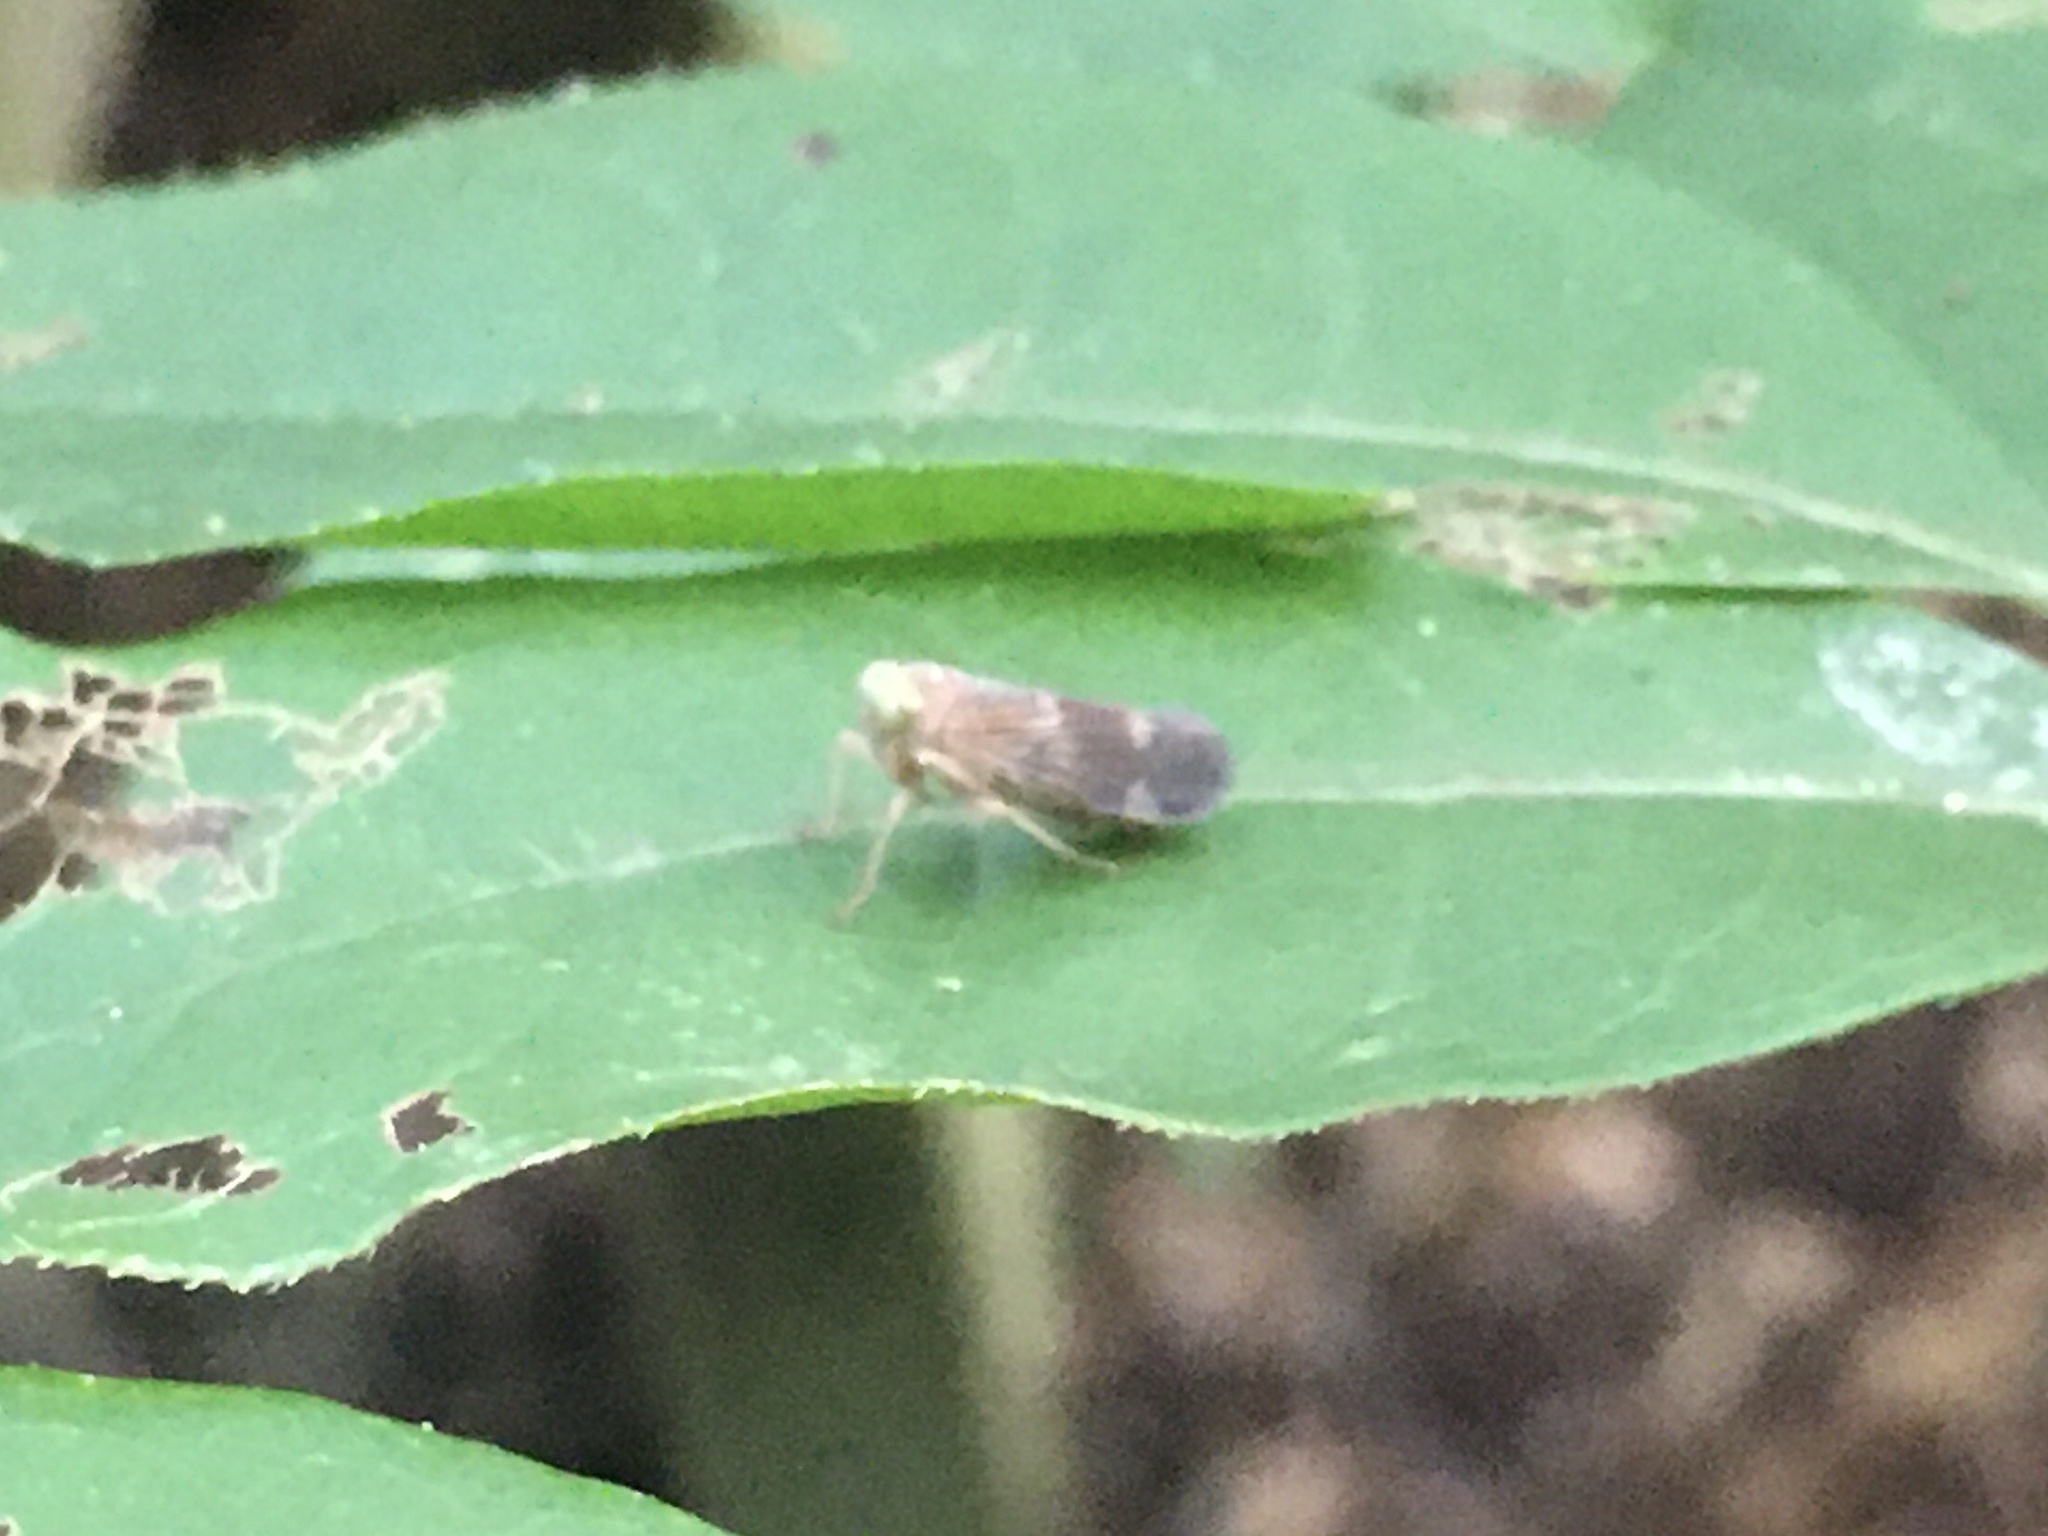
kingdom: Animalia
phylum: Arthropoda
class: Insecta
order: Hemiptera
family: Cicadellidae
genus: Jikradia
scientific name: Jikradia olitoria
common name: Coppery leafhopper
